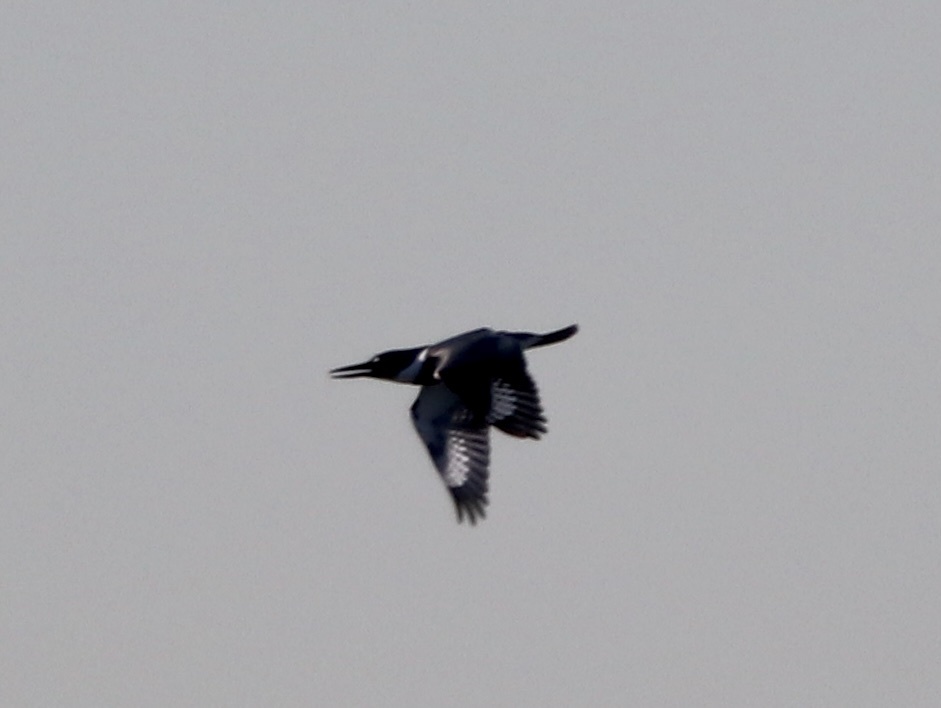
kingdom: Animalia
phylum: Chordata
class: Aves
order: Coraciiformes
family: Alcedinidae
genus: Megaceryle
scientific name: Megaceryle alcyon
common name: Belted kingfisher
